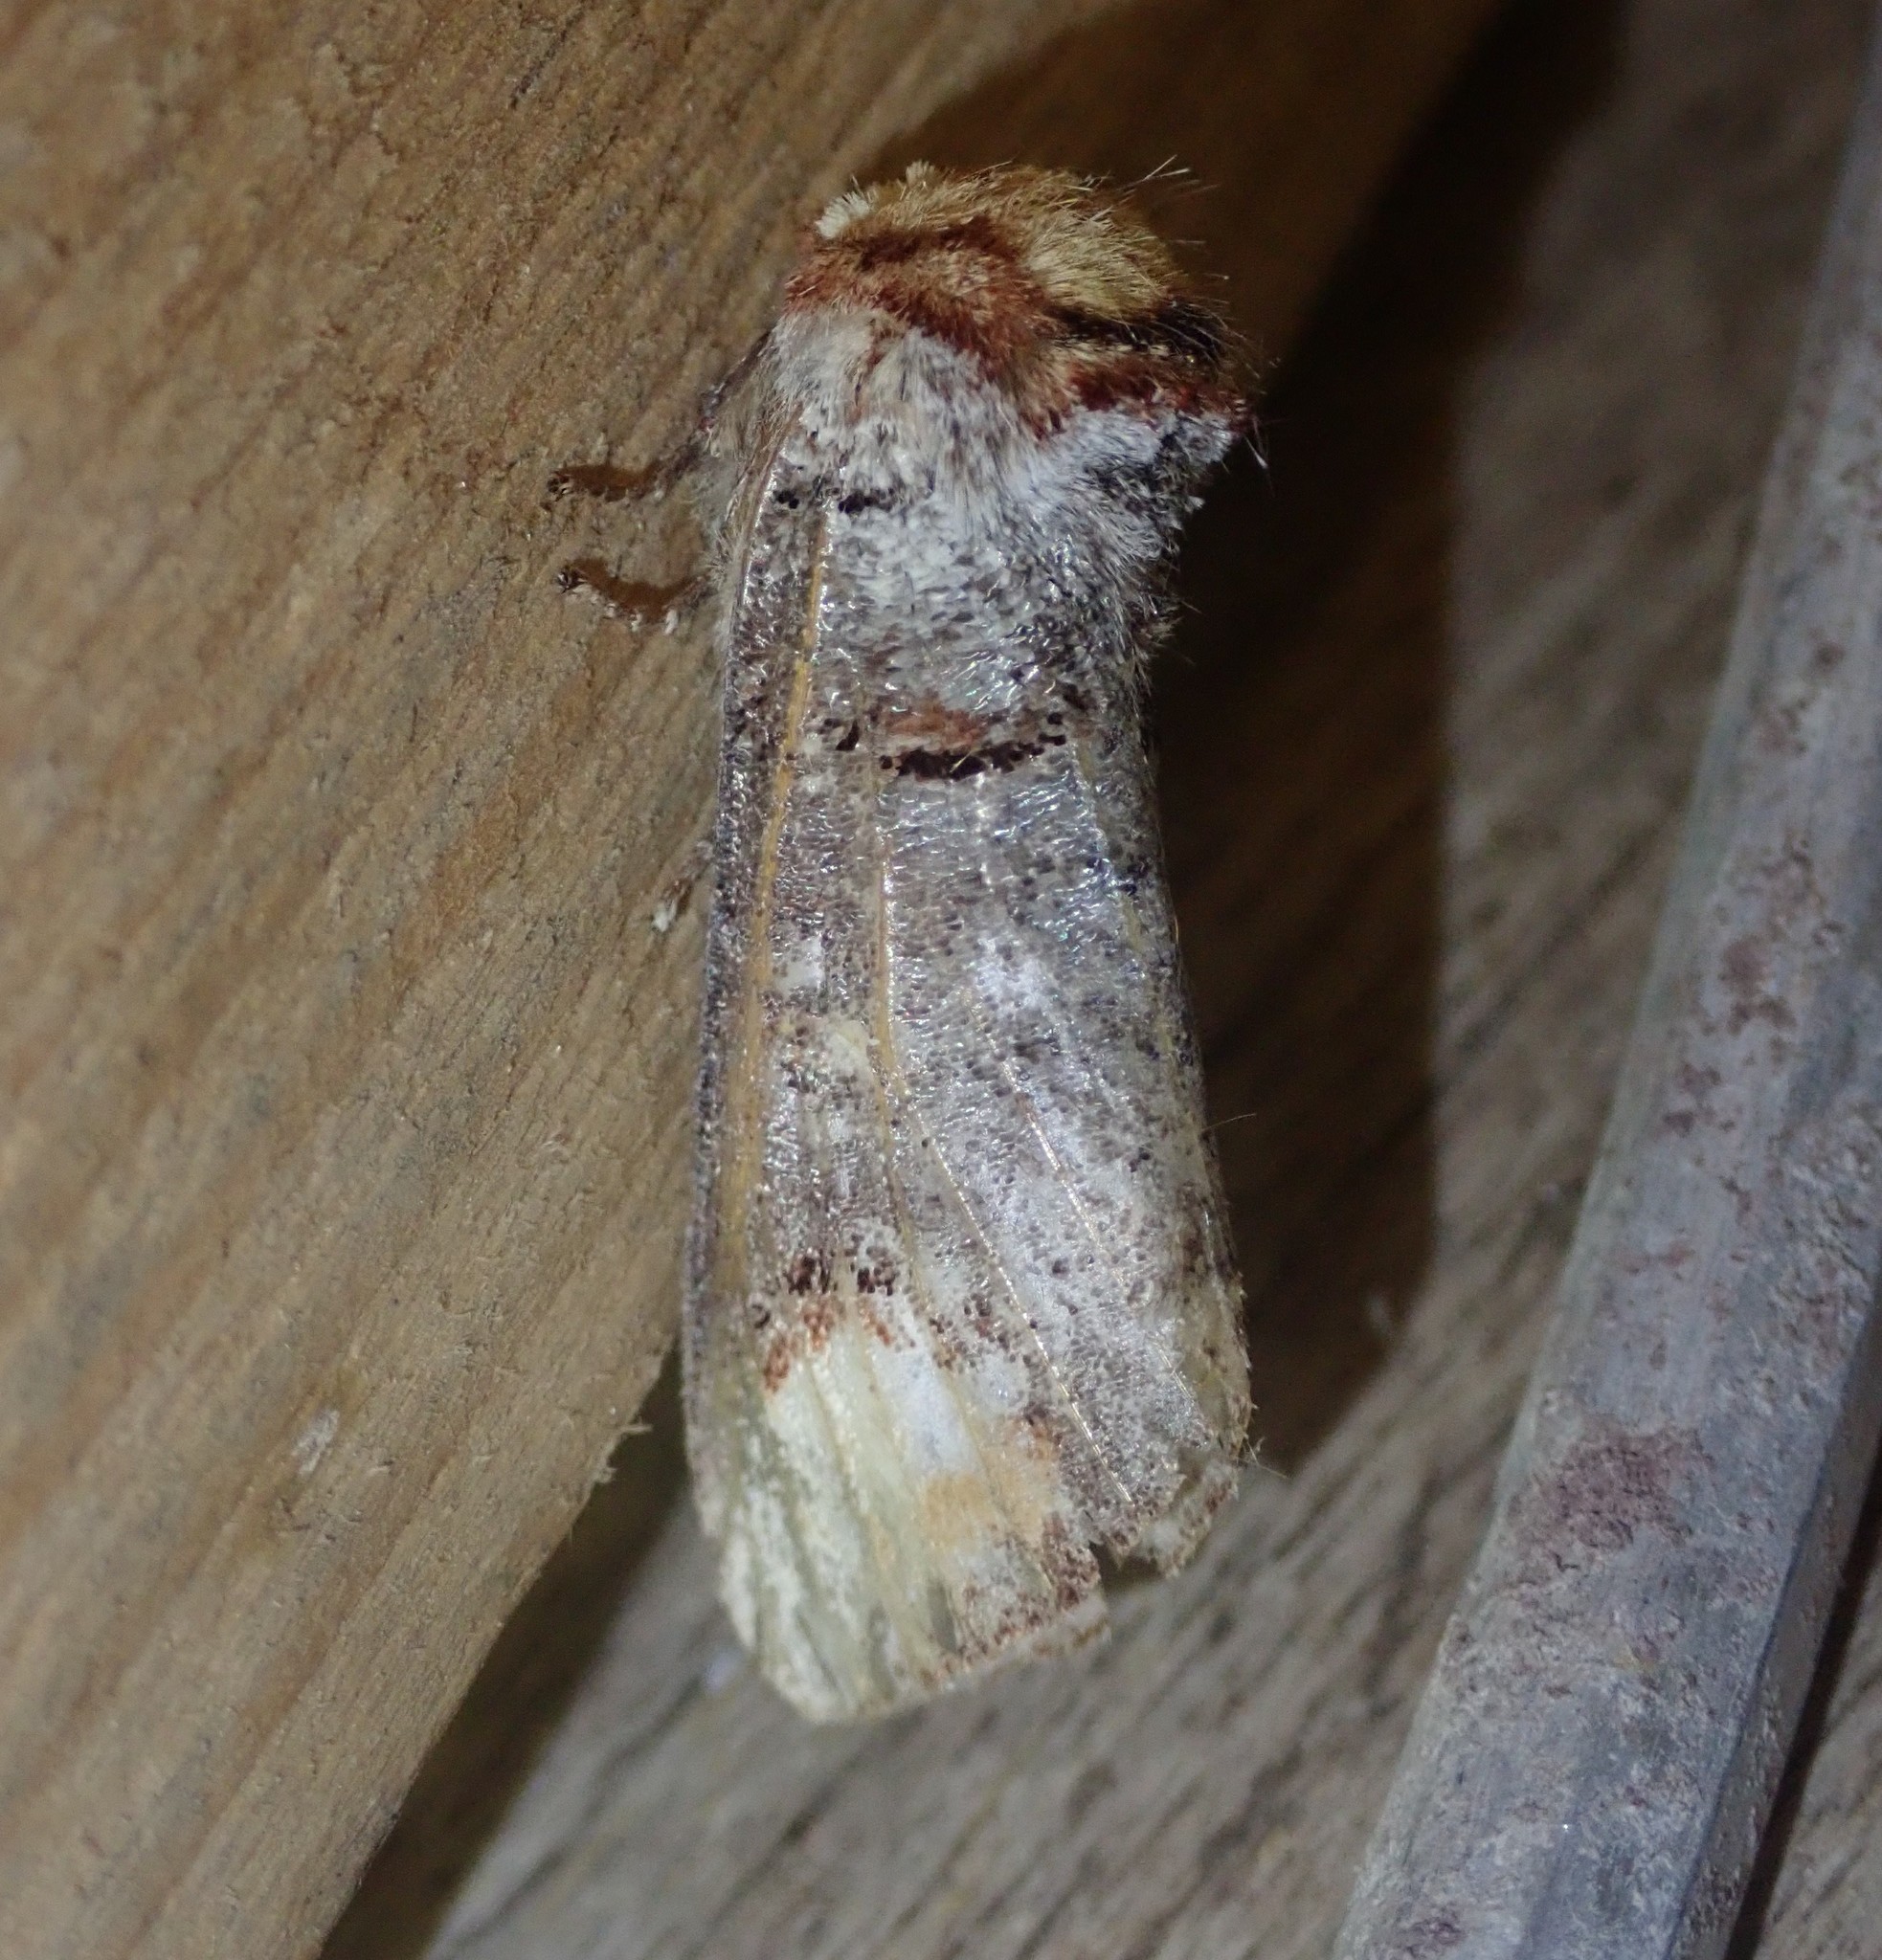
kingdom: Animalia
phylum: Arthropoda
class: Insecta
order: Lepidoptera
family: Notodontidae
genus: Phalera
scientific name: Phalera bucephala
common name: Buff-tip
